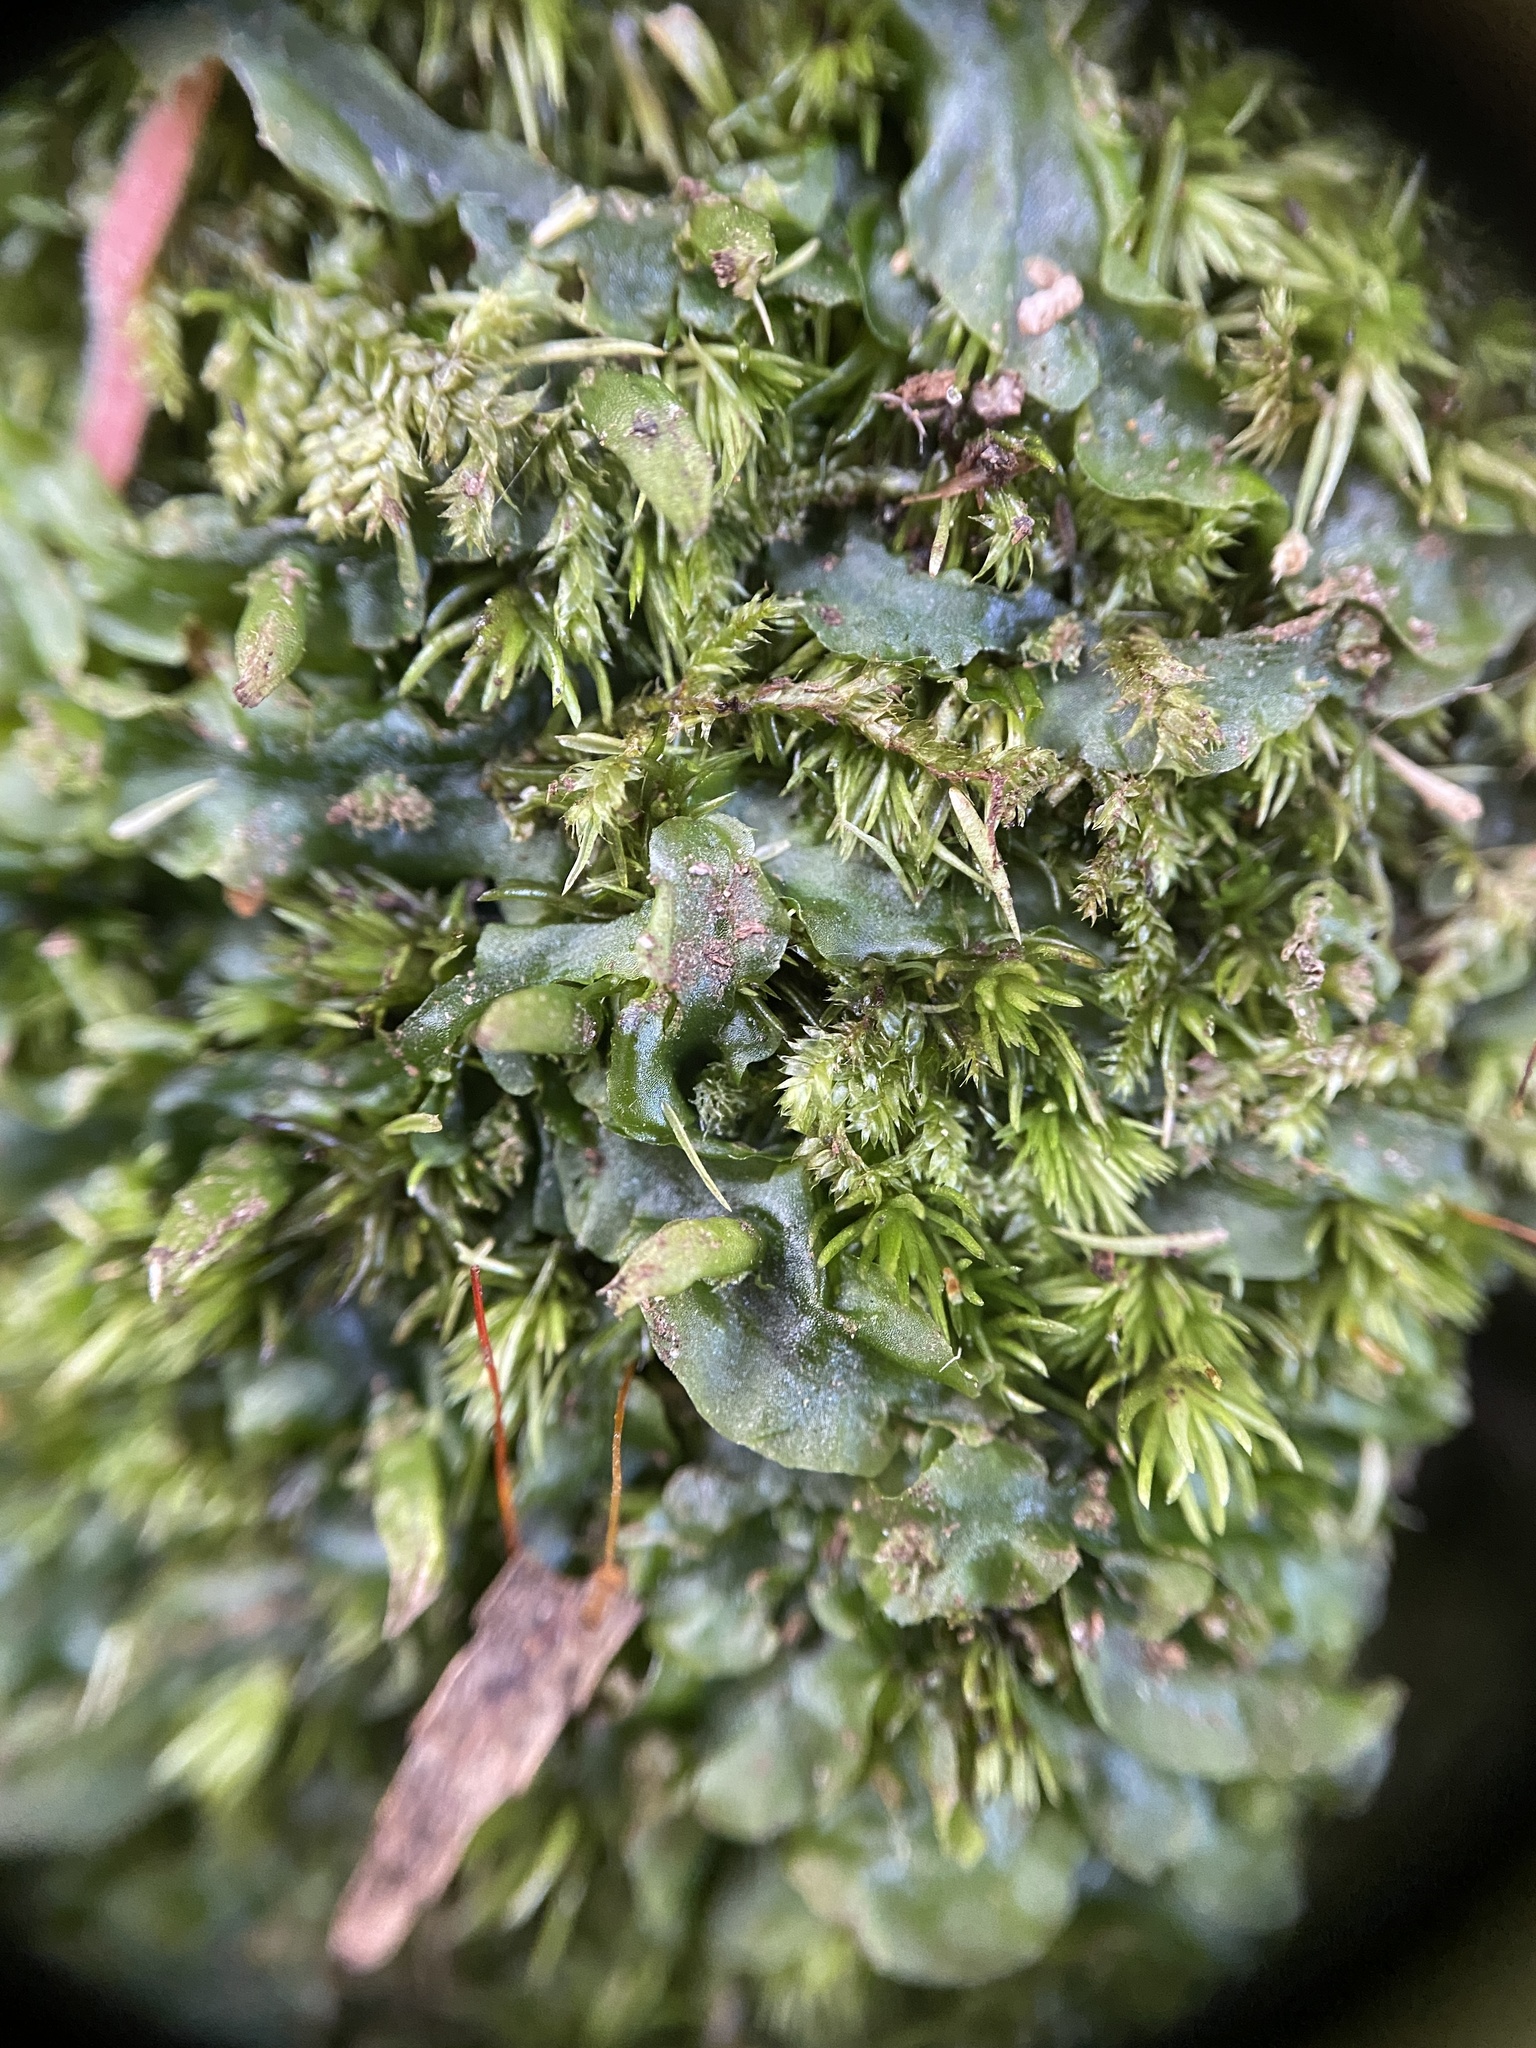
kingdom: Plantae
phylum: Marchantiophyta
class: Jungermanniopsida
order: Pallaviciniales
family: Pallaviciniaceae
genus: Pallavicinia
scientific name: Pallavicinia lyellii
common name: Veilwort
